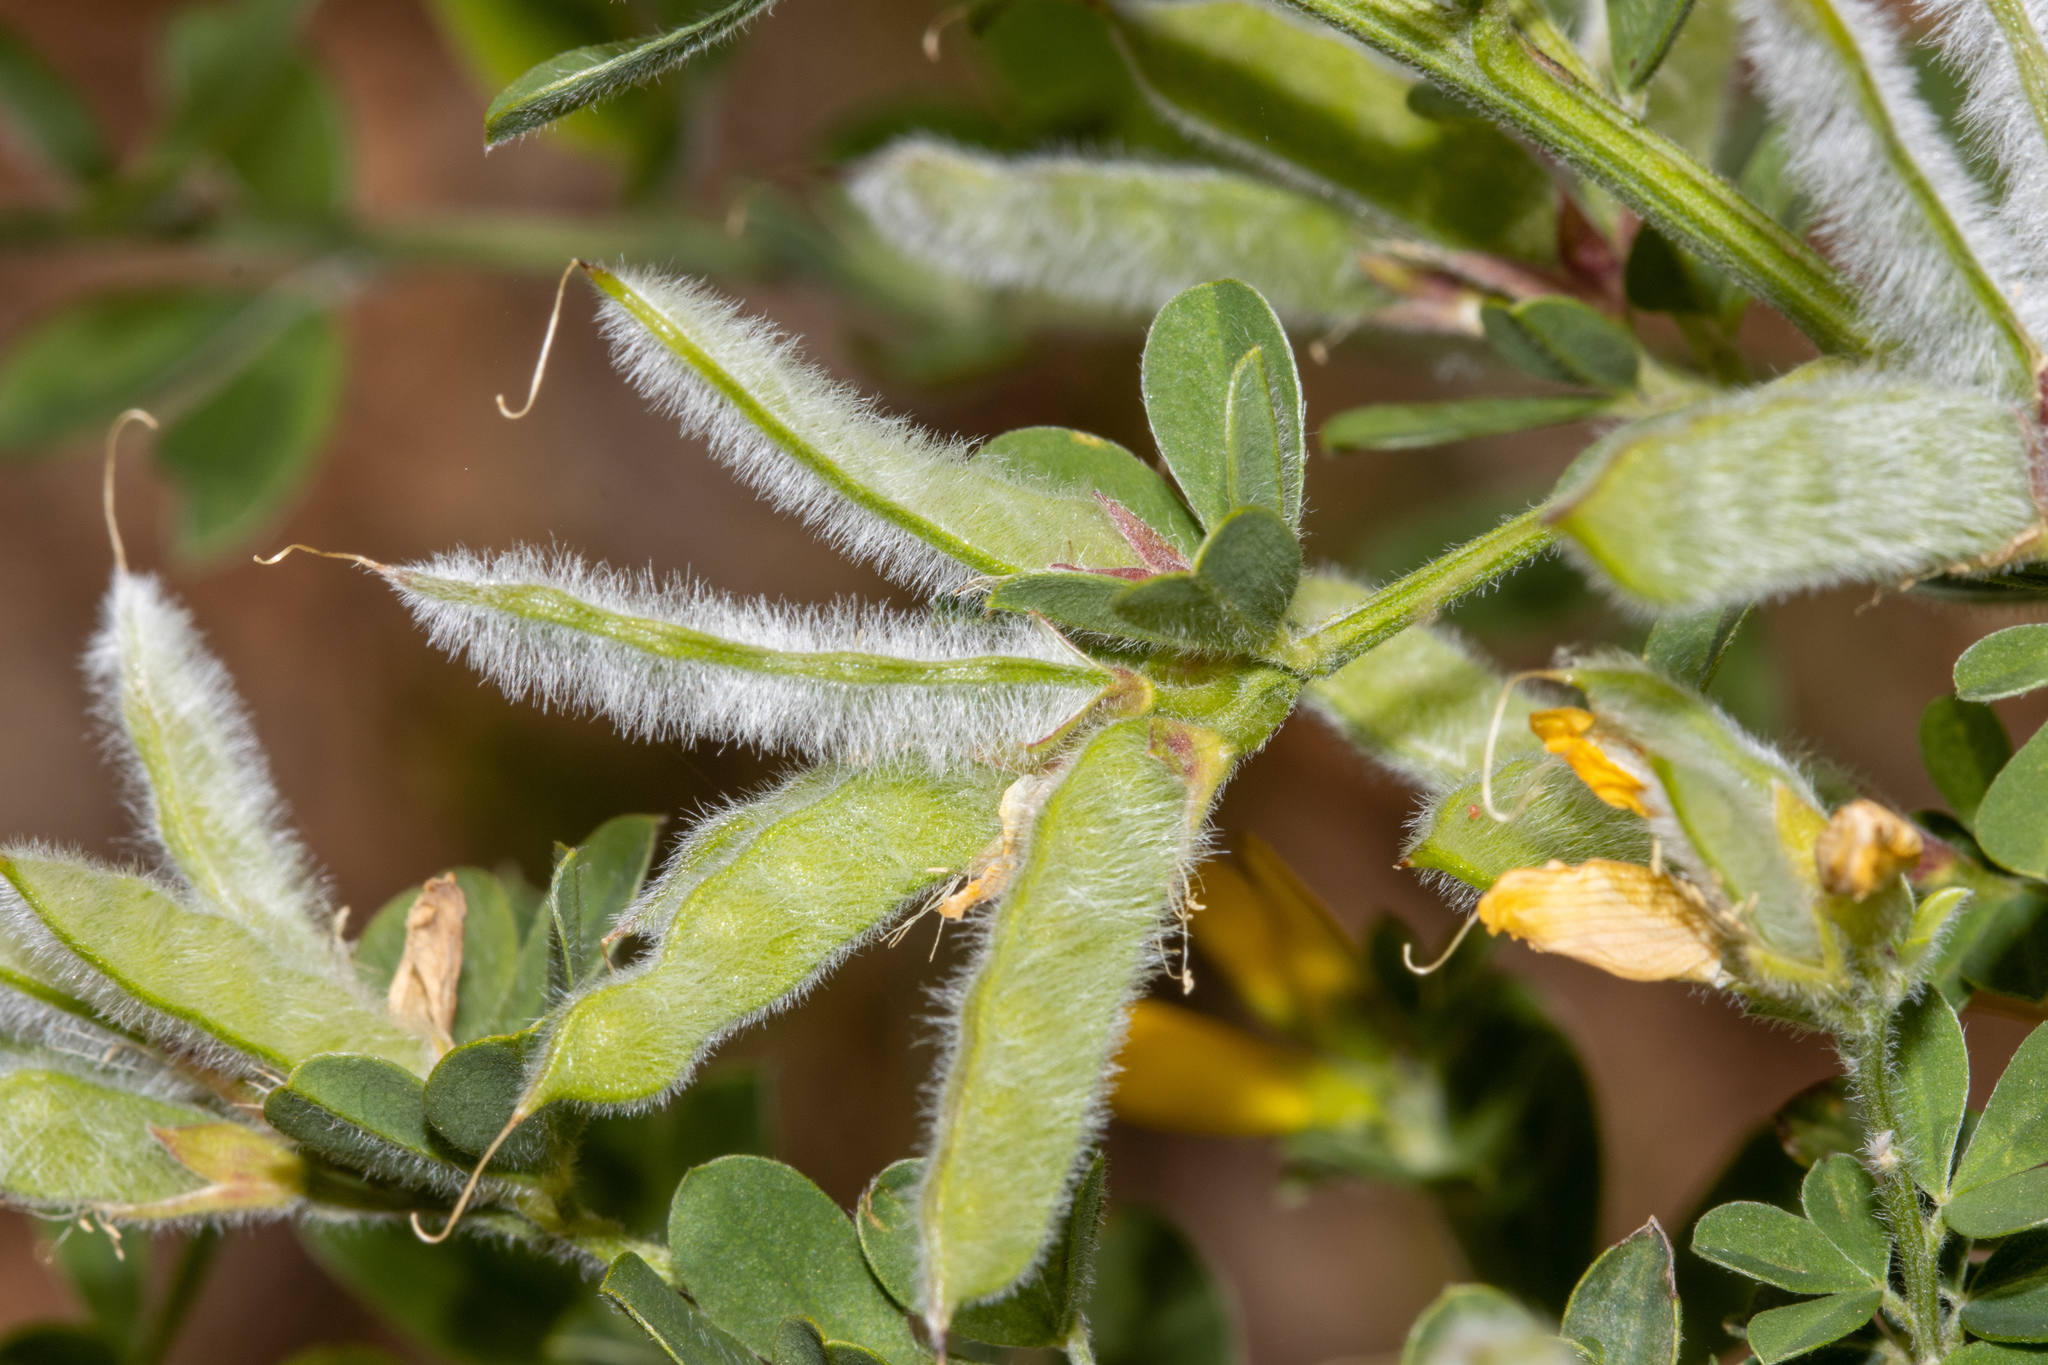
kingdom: Plantae
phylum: Tracheophyta
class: Magnoliopsida
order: Fabales
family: Fabaceae
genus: Genista
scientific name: Genista monspessulana
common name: Montpellier broom
